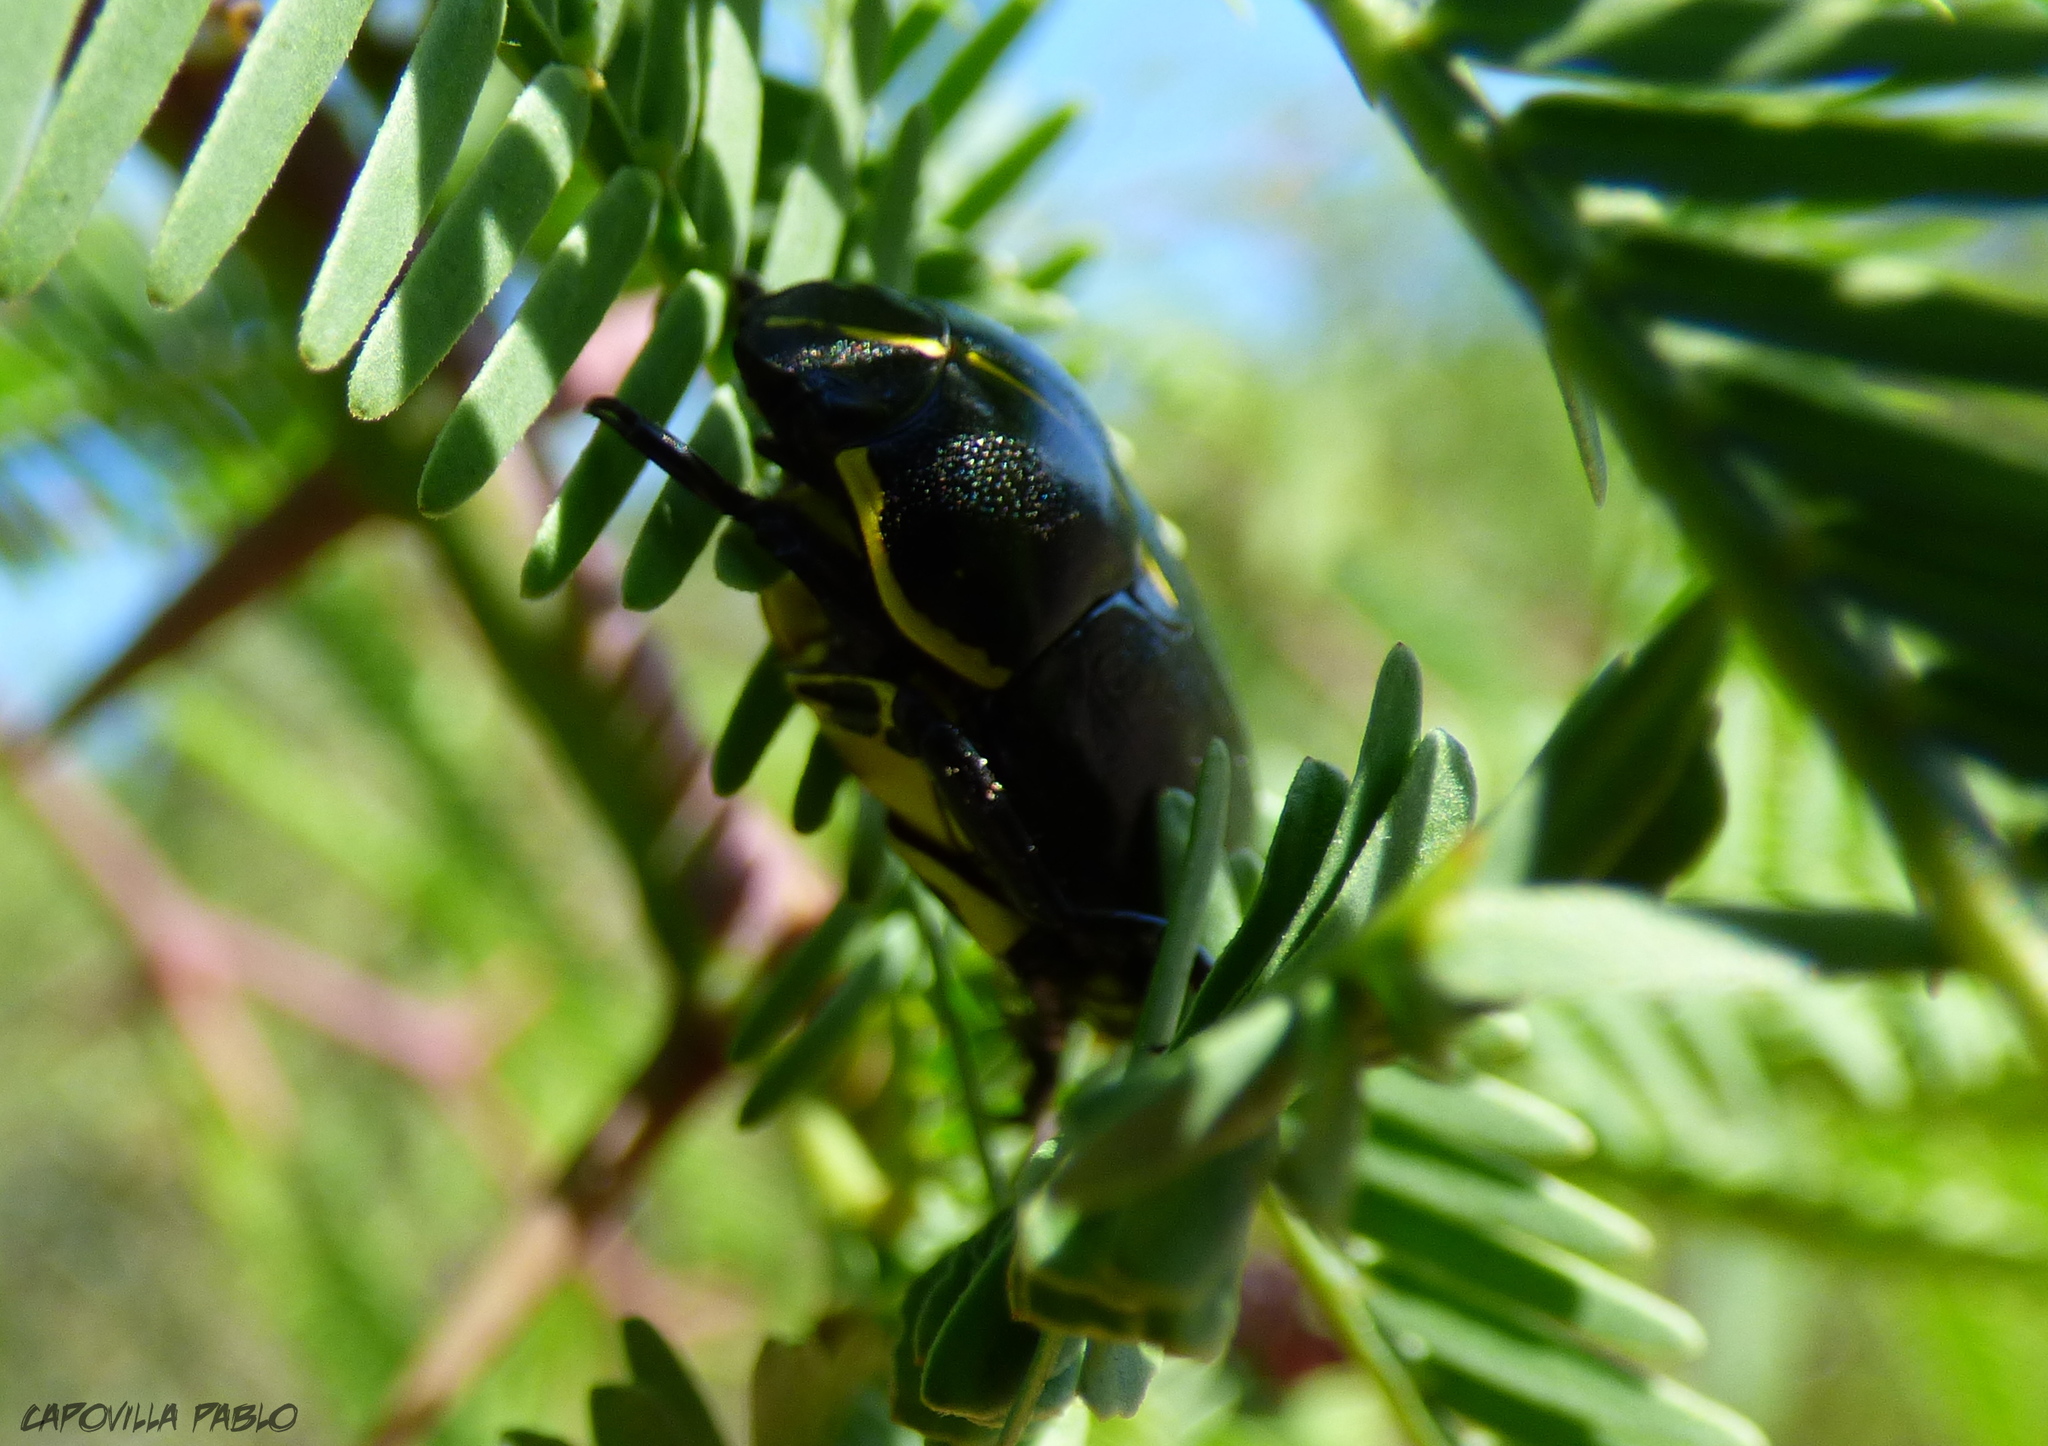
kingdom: Animalia
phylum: Arthropoda
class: Insecta
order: Coleoptera
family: Scarabaeidae
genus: Rutela
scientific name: Rutela lineola
